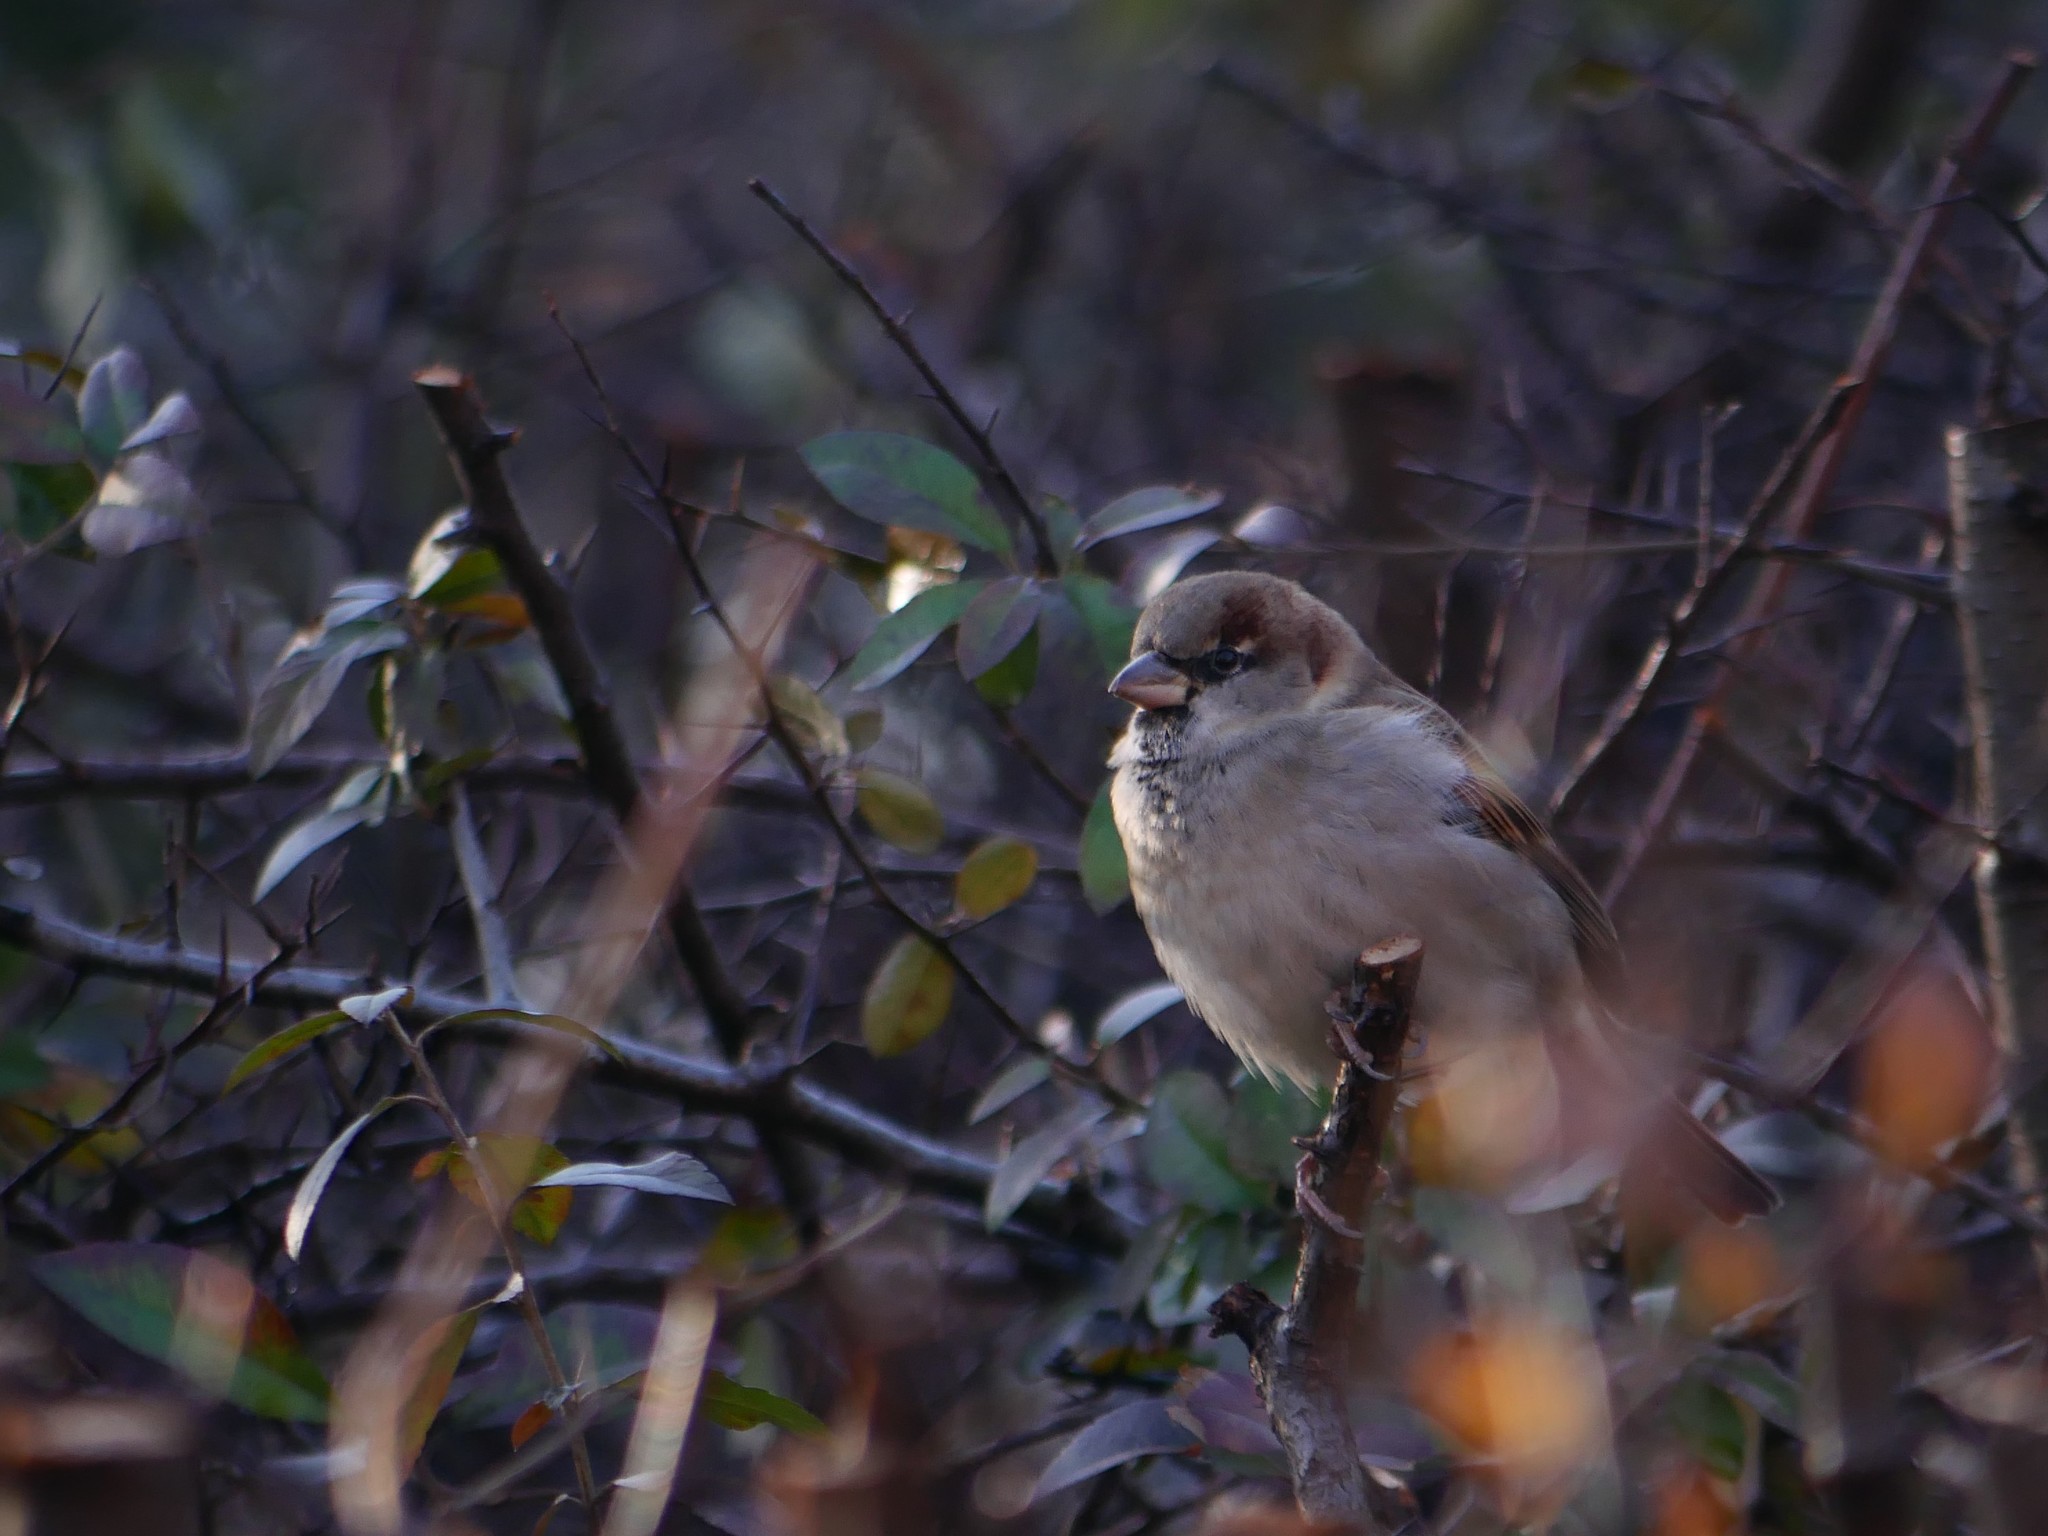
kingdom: Animalia
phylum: Chordata
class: Aves
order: Passeriformes
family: Passeridae
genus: Passer
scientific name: Passer domesticus
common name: House sparrow
